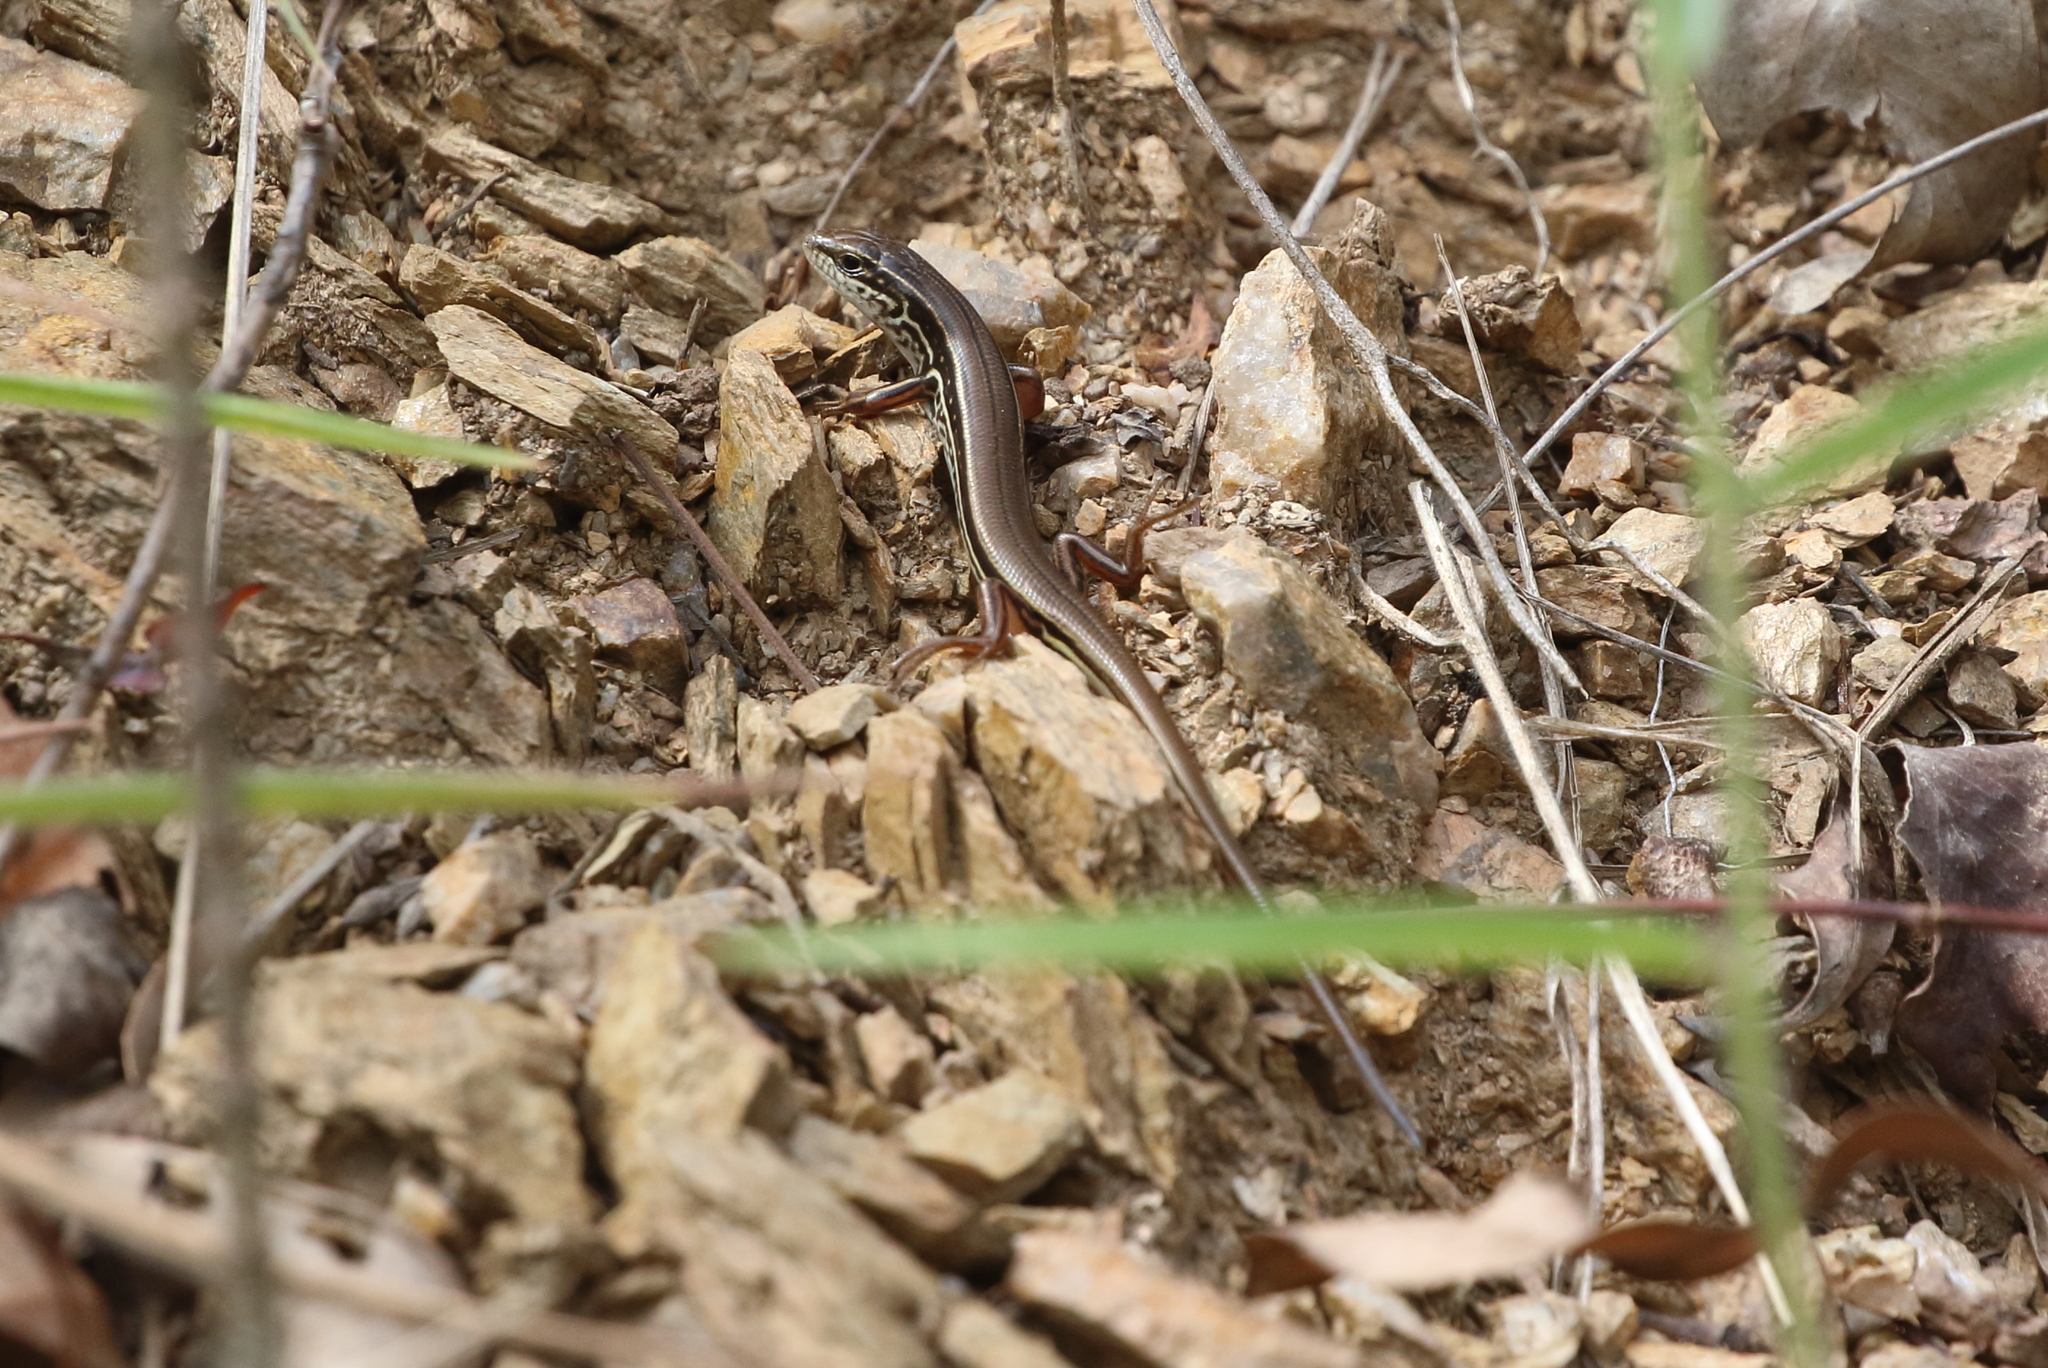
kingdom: Animalia
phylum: Chordata
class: Squamata
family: Scincidae
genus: Ctenotus
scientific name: Ctenotus arcanus
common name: Arcane ctenotus
